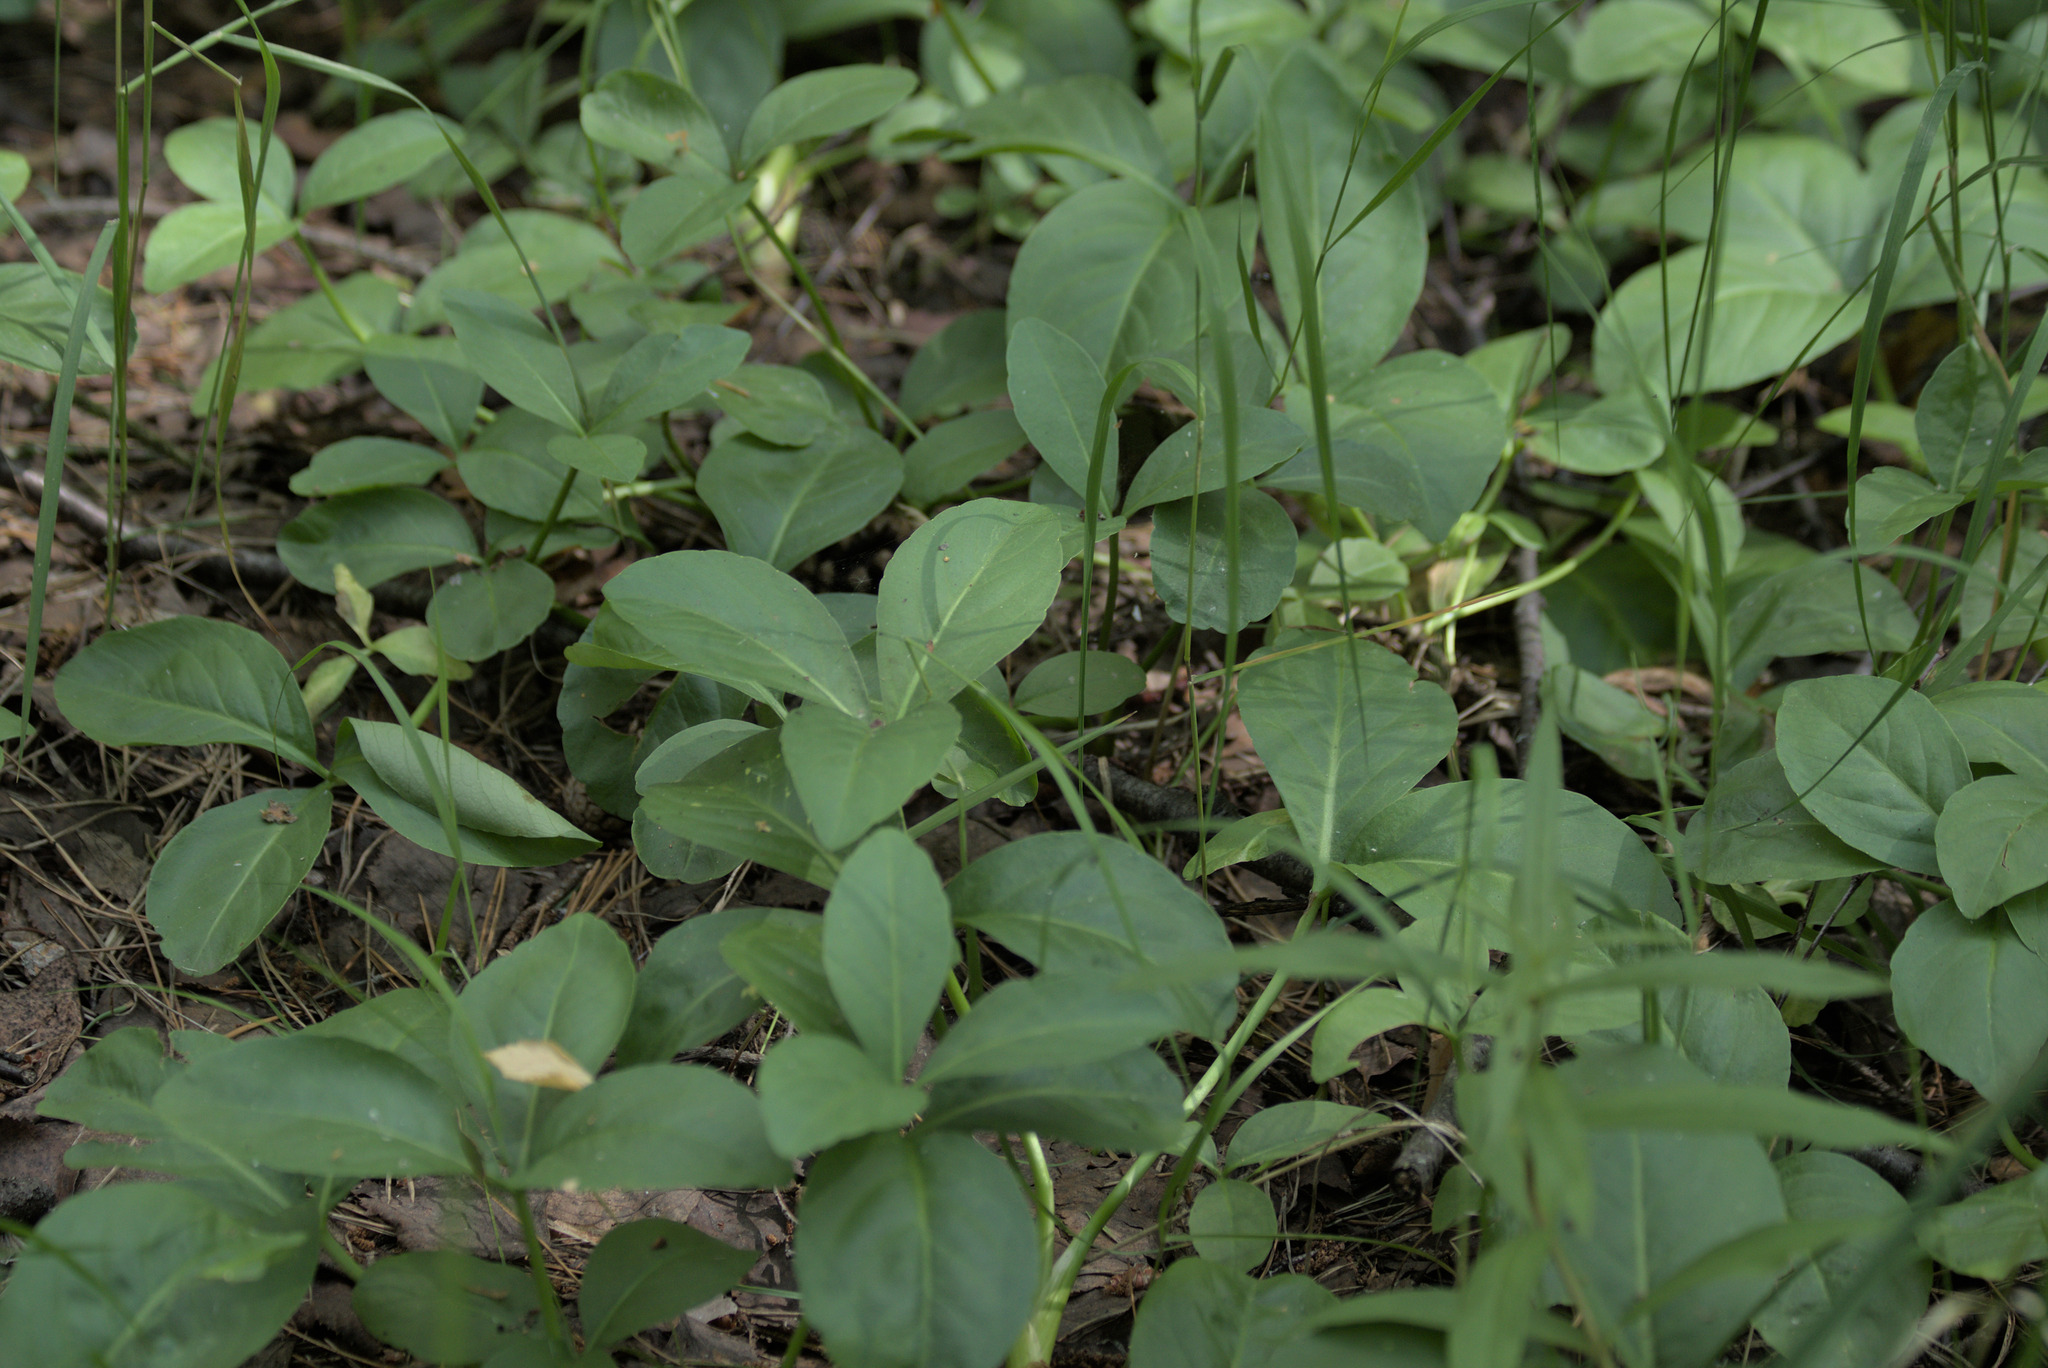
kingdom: Plantae
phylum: Tracheophyta
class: Magnoliopsida
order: Asterales
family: Menyanthaceae
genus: Menyanthes
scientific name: Menyanthes trifoliata
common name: Bogbean
